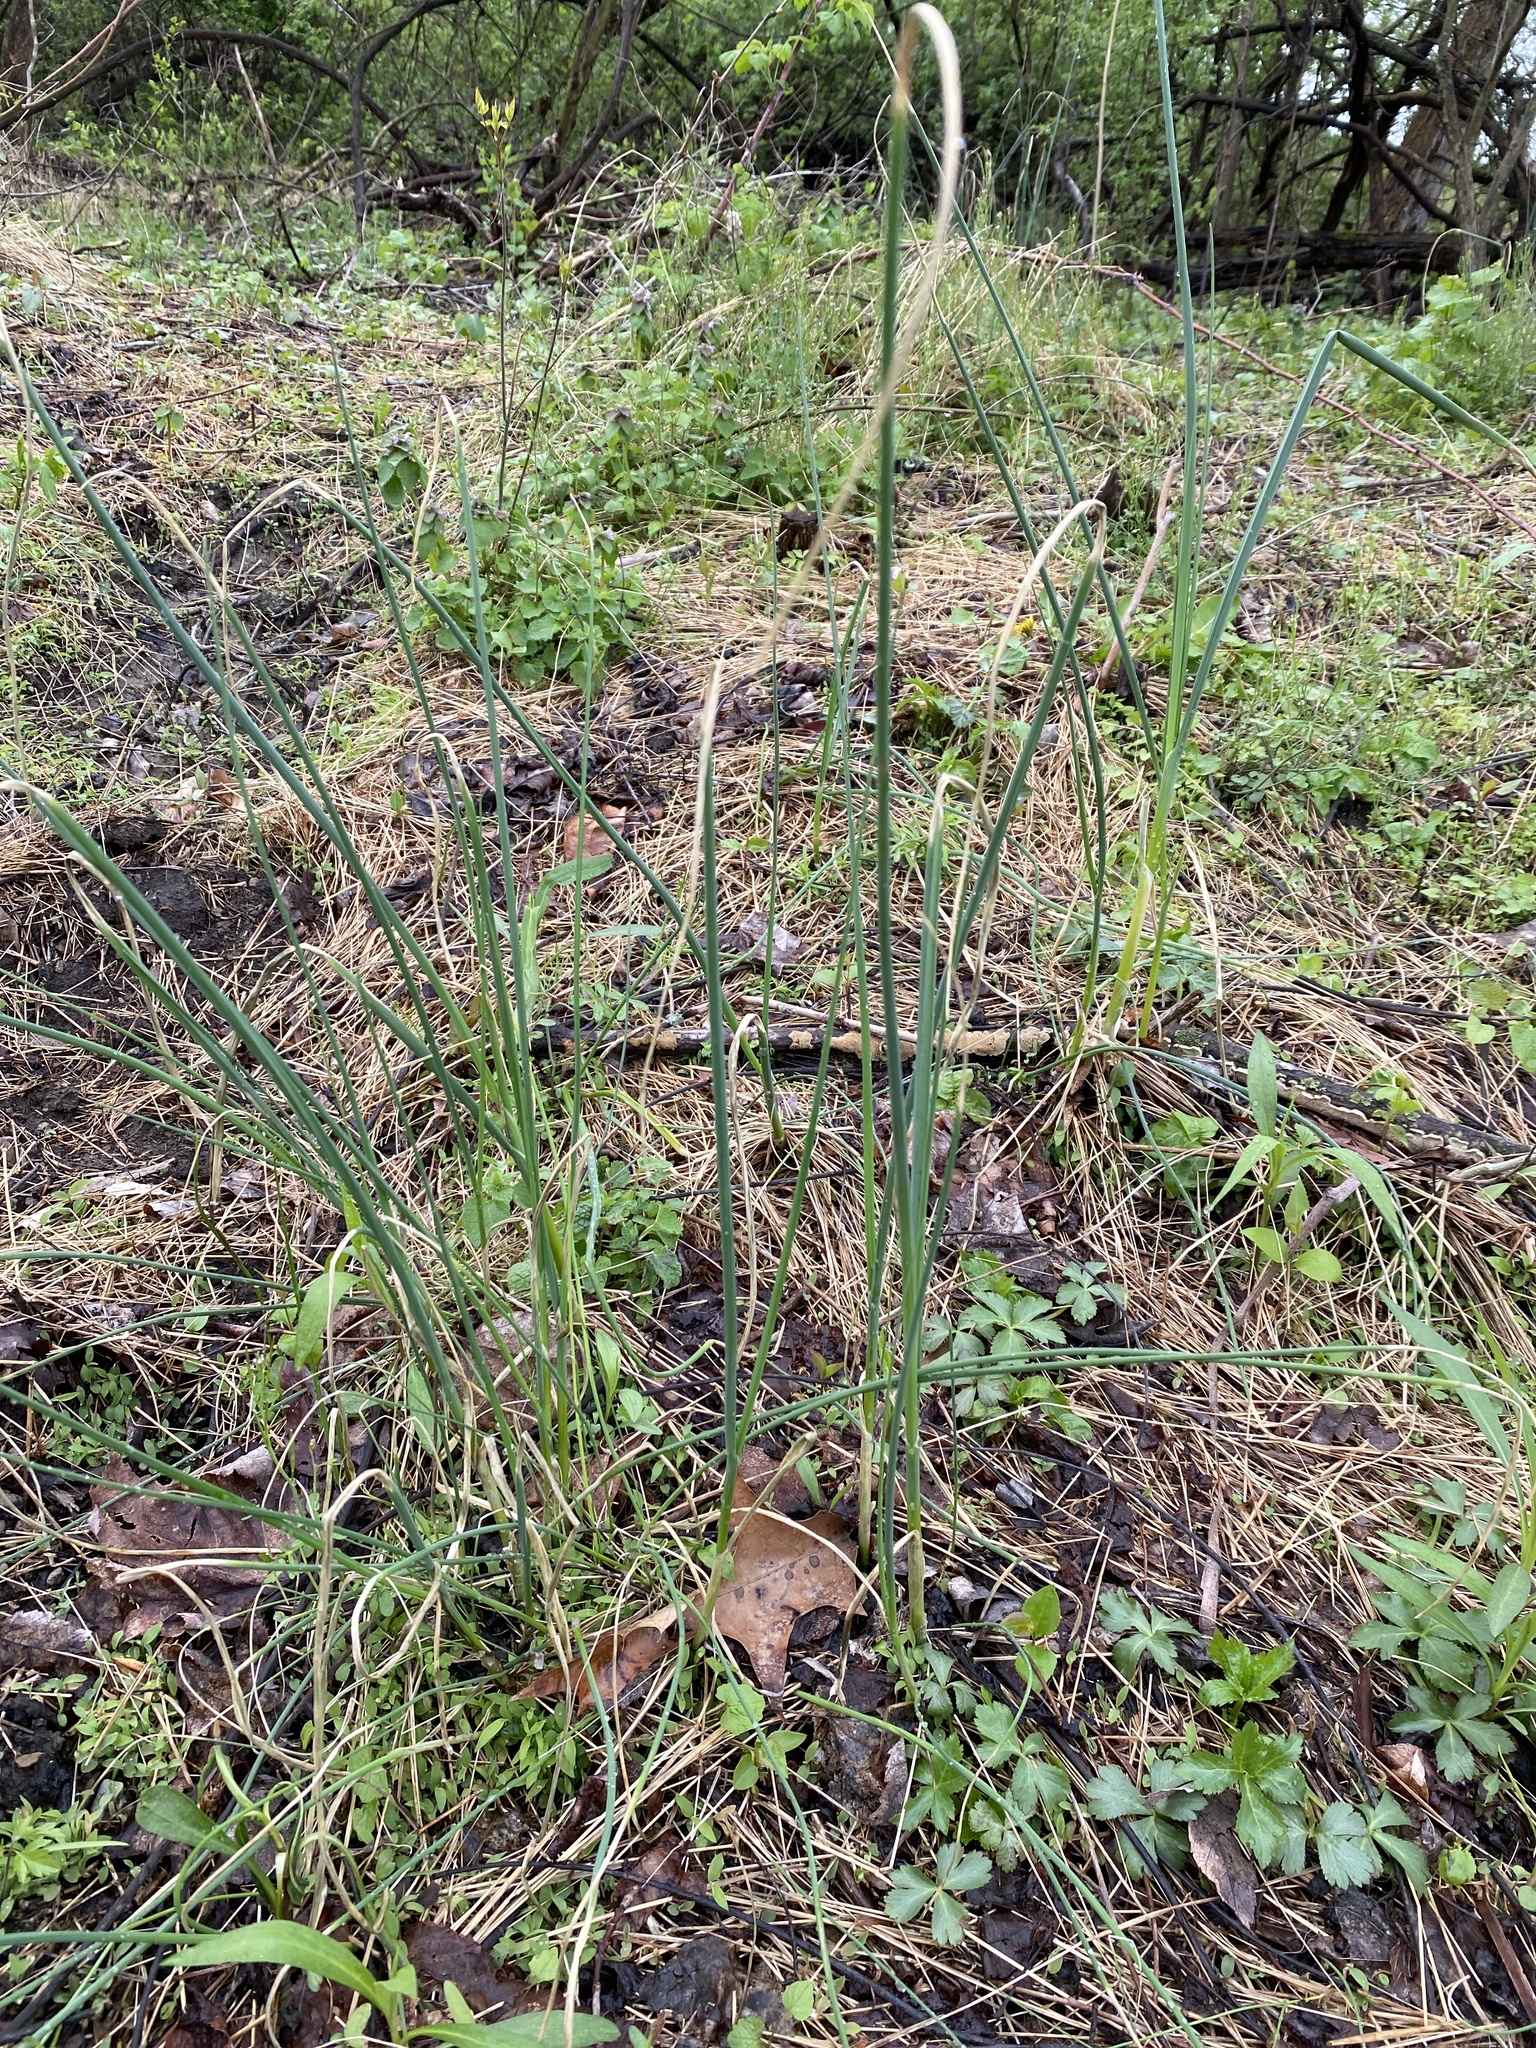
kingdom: Plantae
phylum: Tracheophyta
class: Liliopsida
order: Asparagales
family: Amaryllidaceae
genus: Allium
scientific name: Allium vineale
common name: Crow garlic
